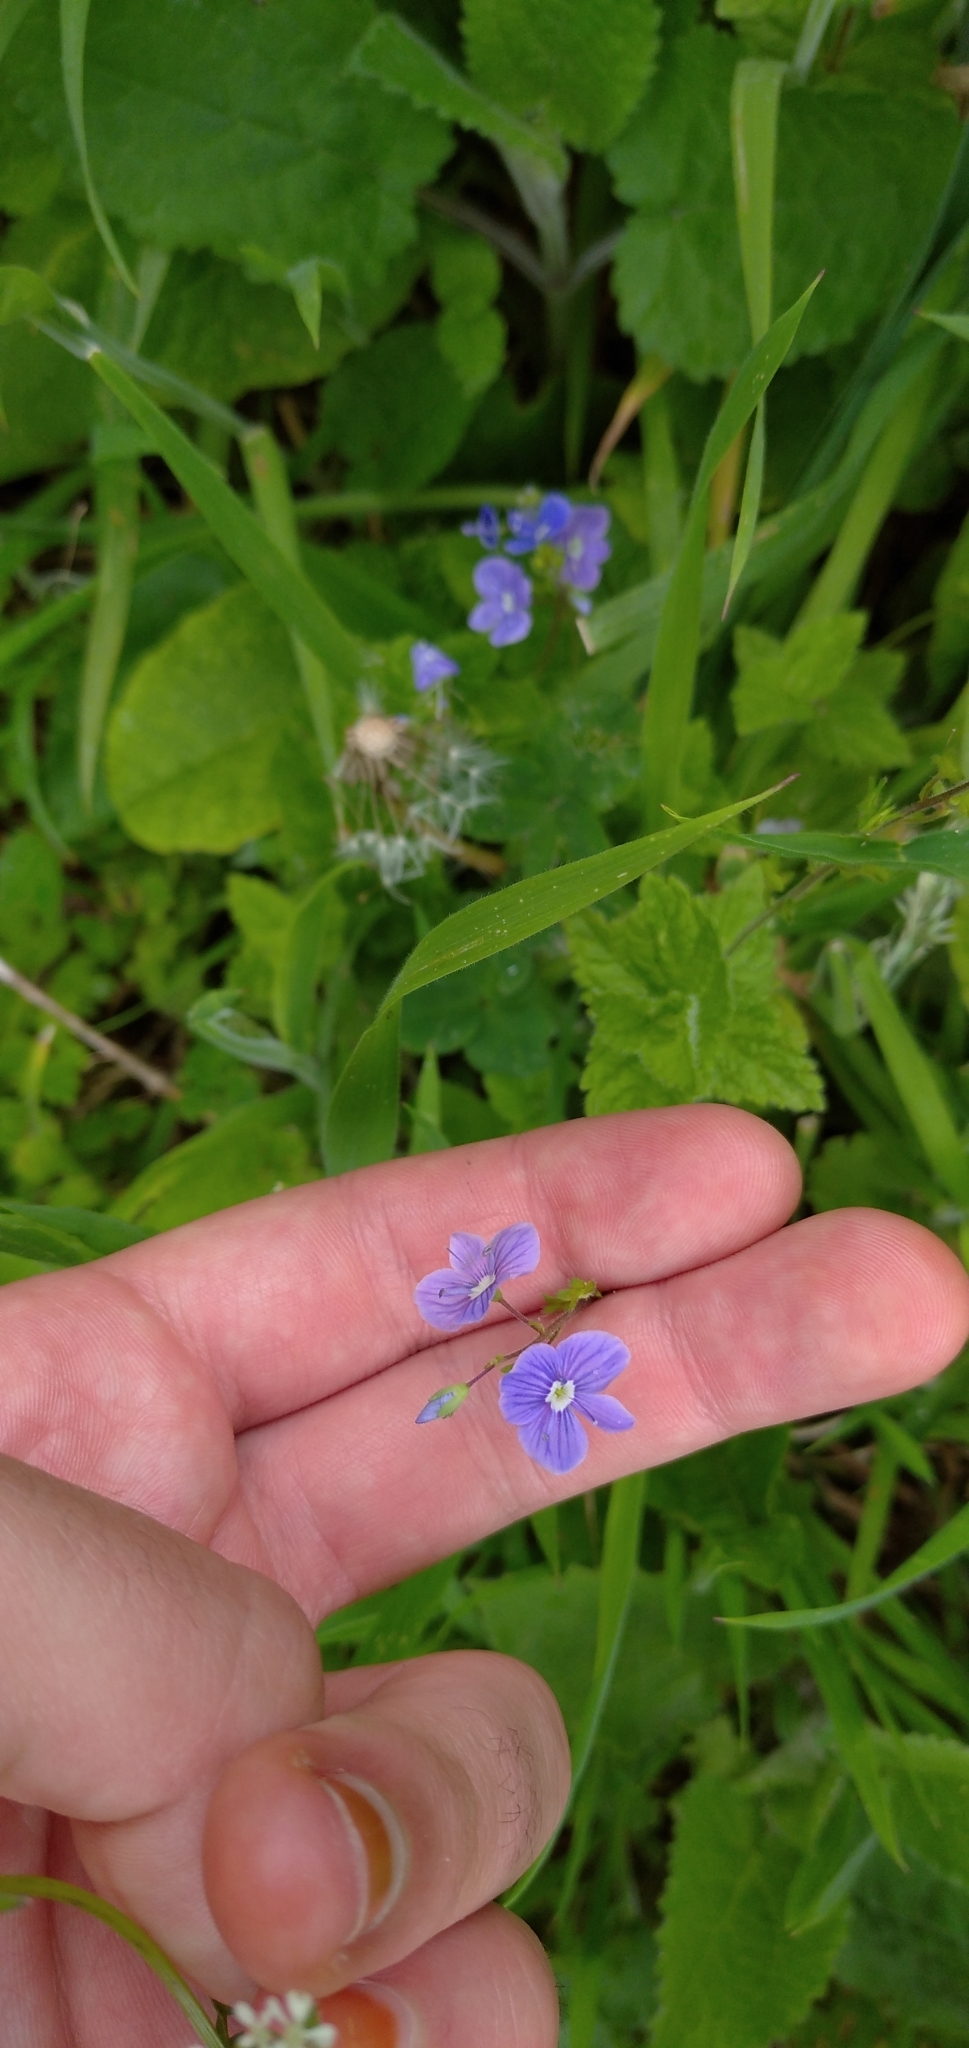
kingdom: Plantae
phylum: Tracheophyta
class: Magnoliopsida
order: Lamiales
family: Plantaginaceae
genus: Veronica
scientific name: Veronica chamaedrys
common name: Germander speedwell
